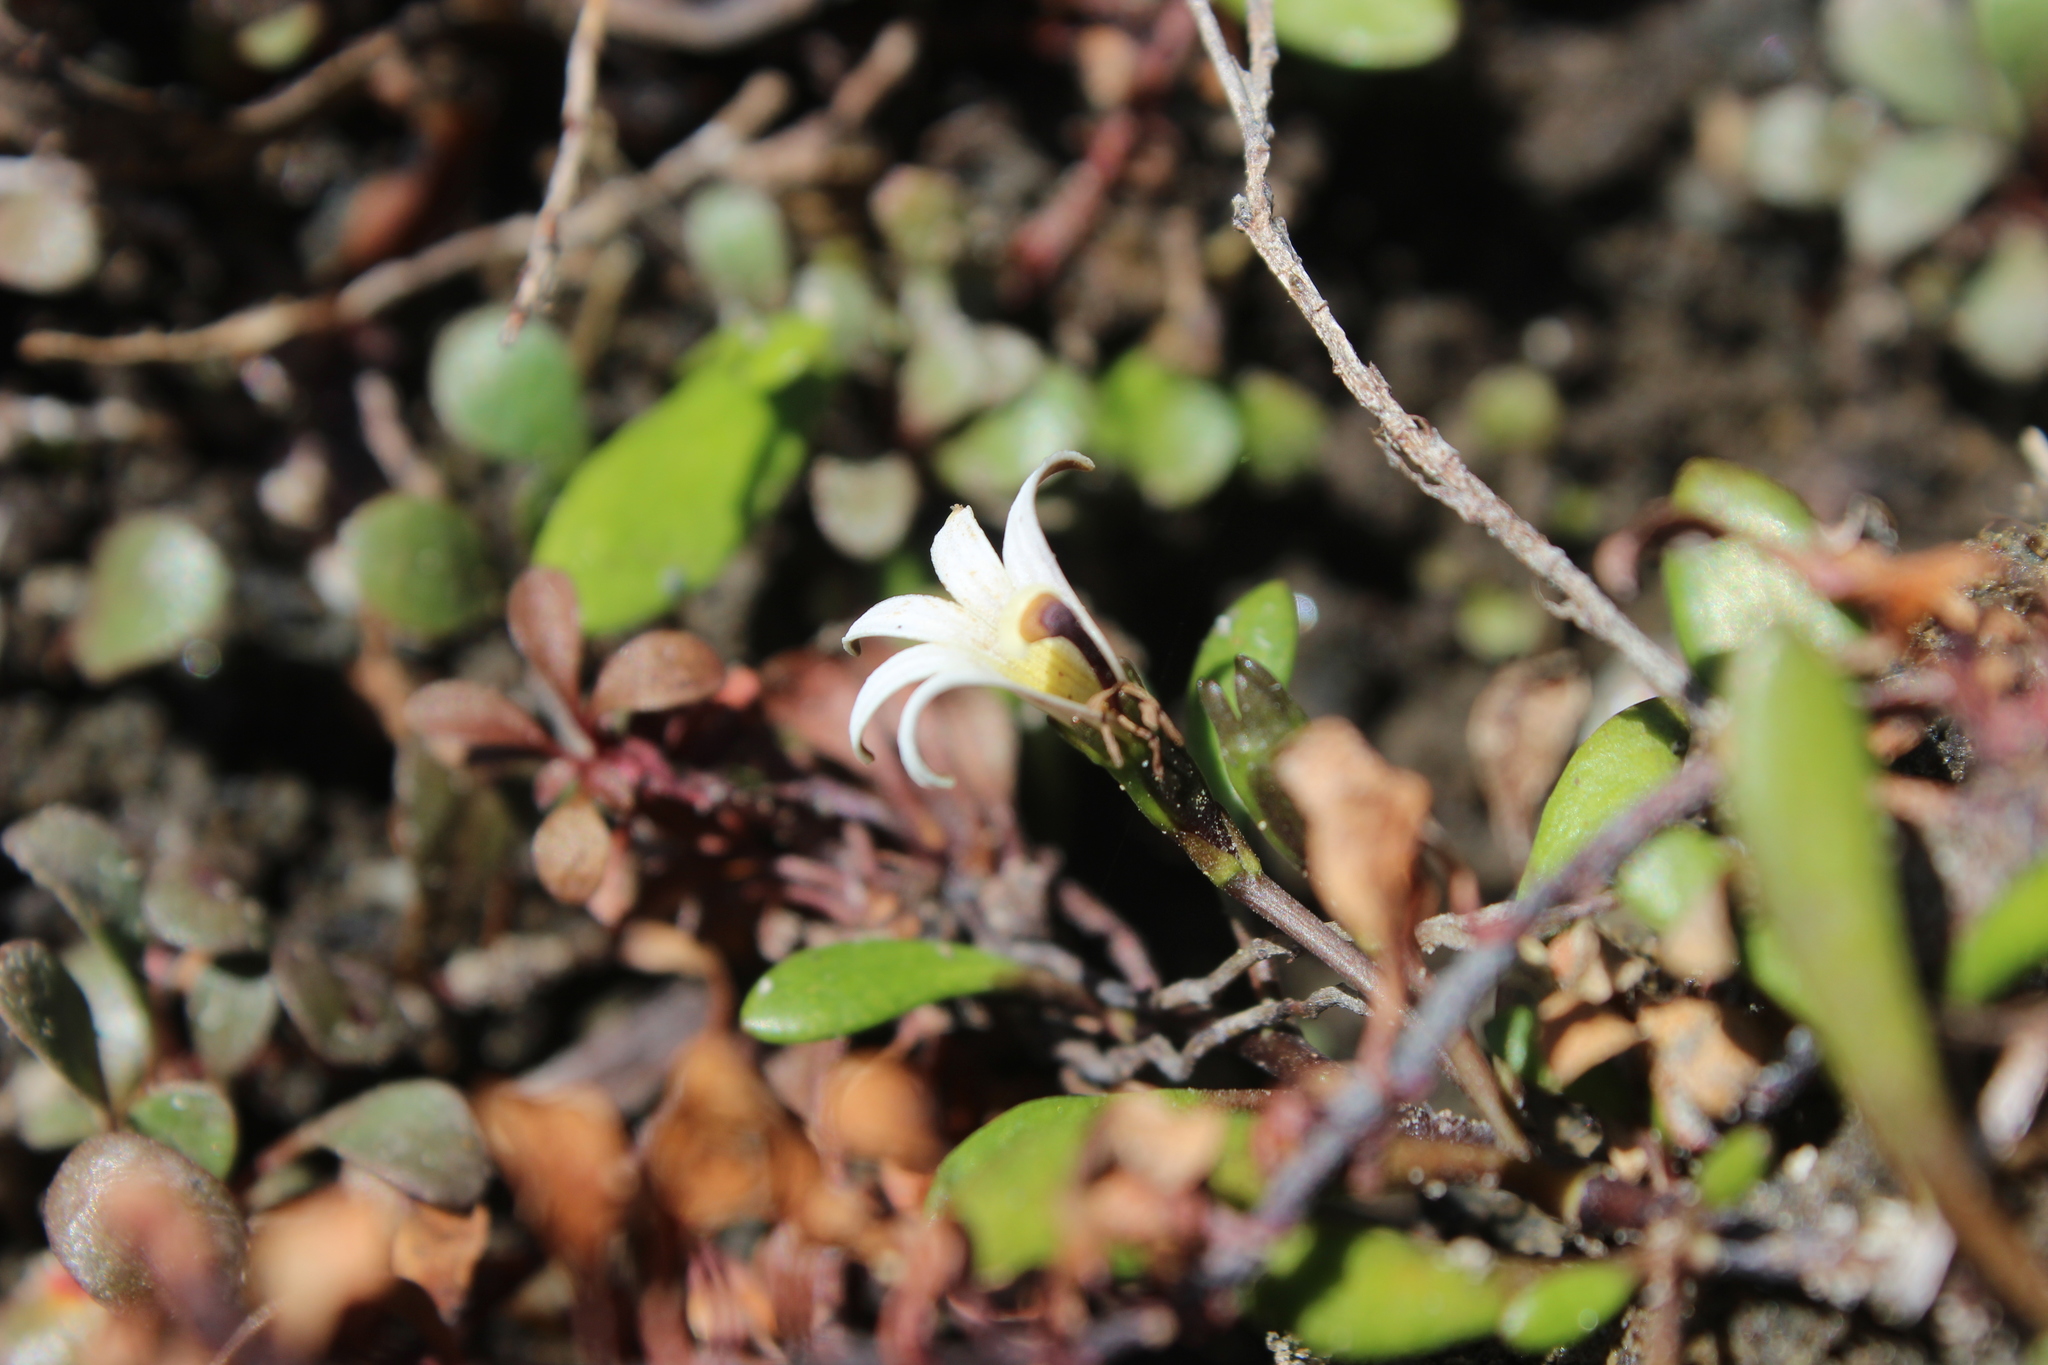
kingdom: Plantae
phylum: Tracheophyta
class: Magnoliopsida
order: Asterales
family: Goodeniaceae
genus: Goodenia
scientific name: Goodenia radicans
